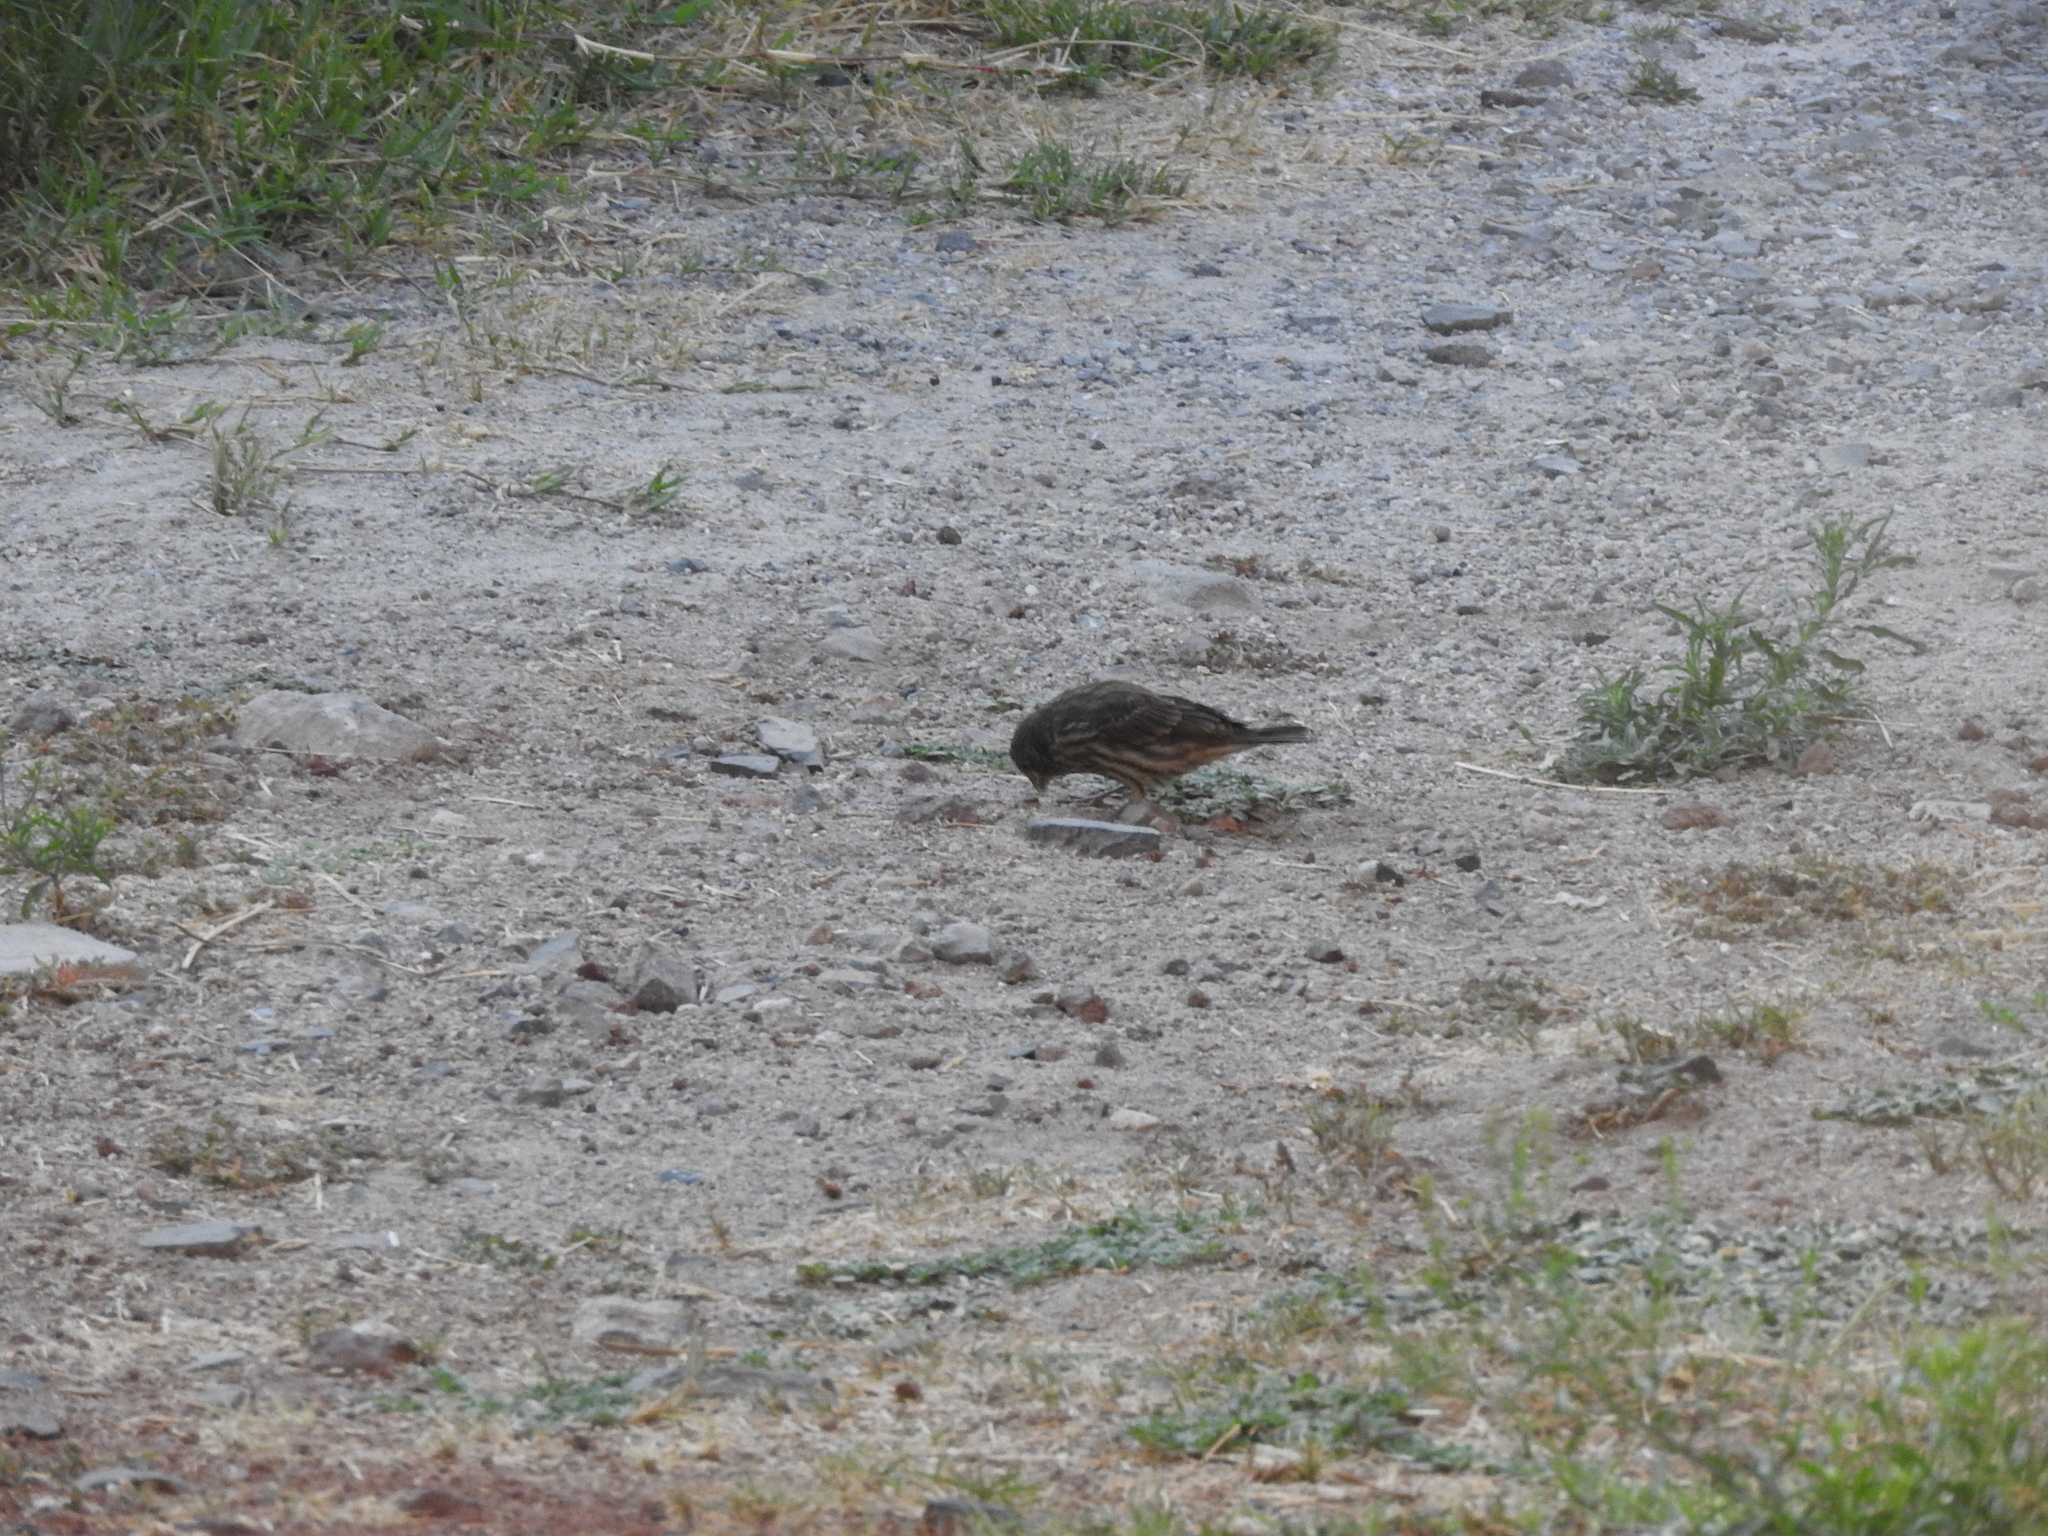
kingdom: Animalia
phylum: Chordata
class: Aves
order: Passeriformes
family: Fringillidae
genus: Haemorhous
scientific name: Haemorhous mexicanus
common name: House finch
